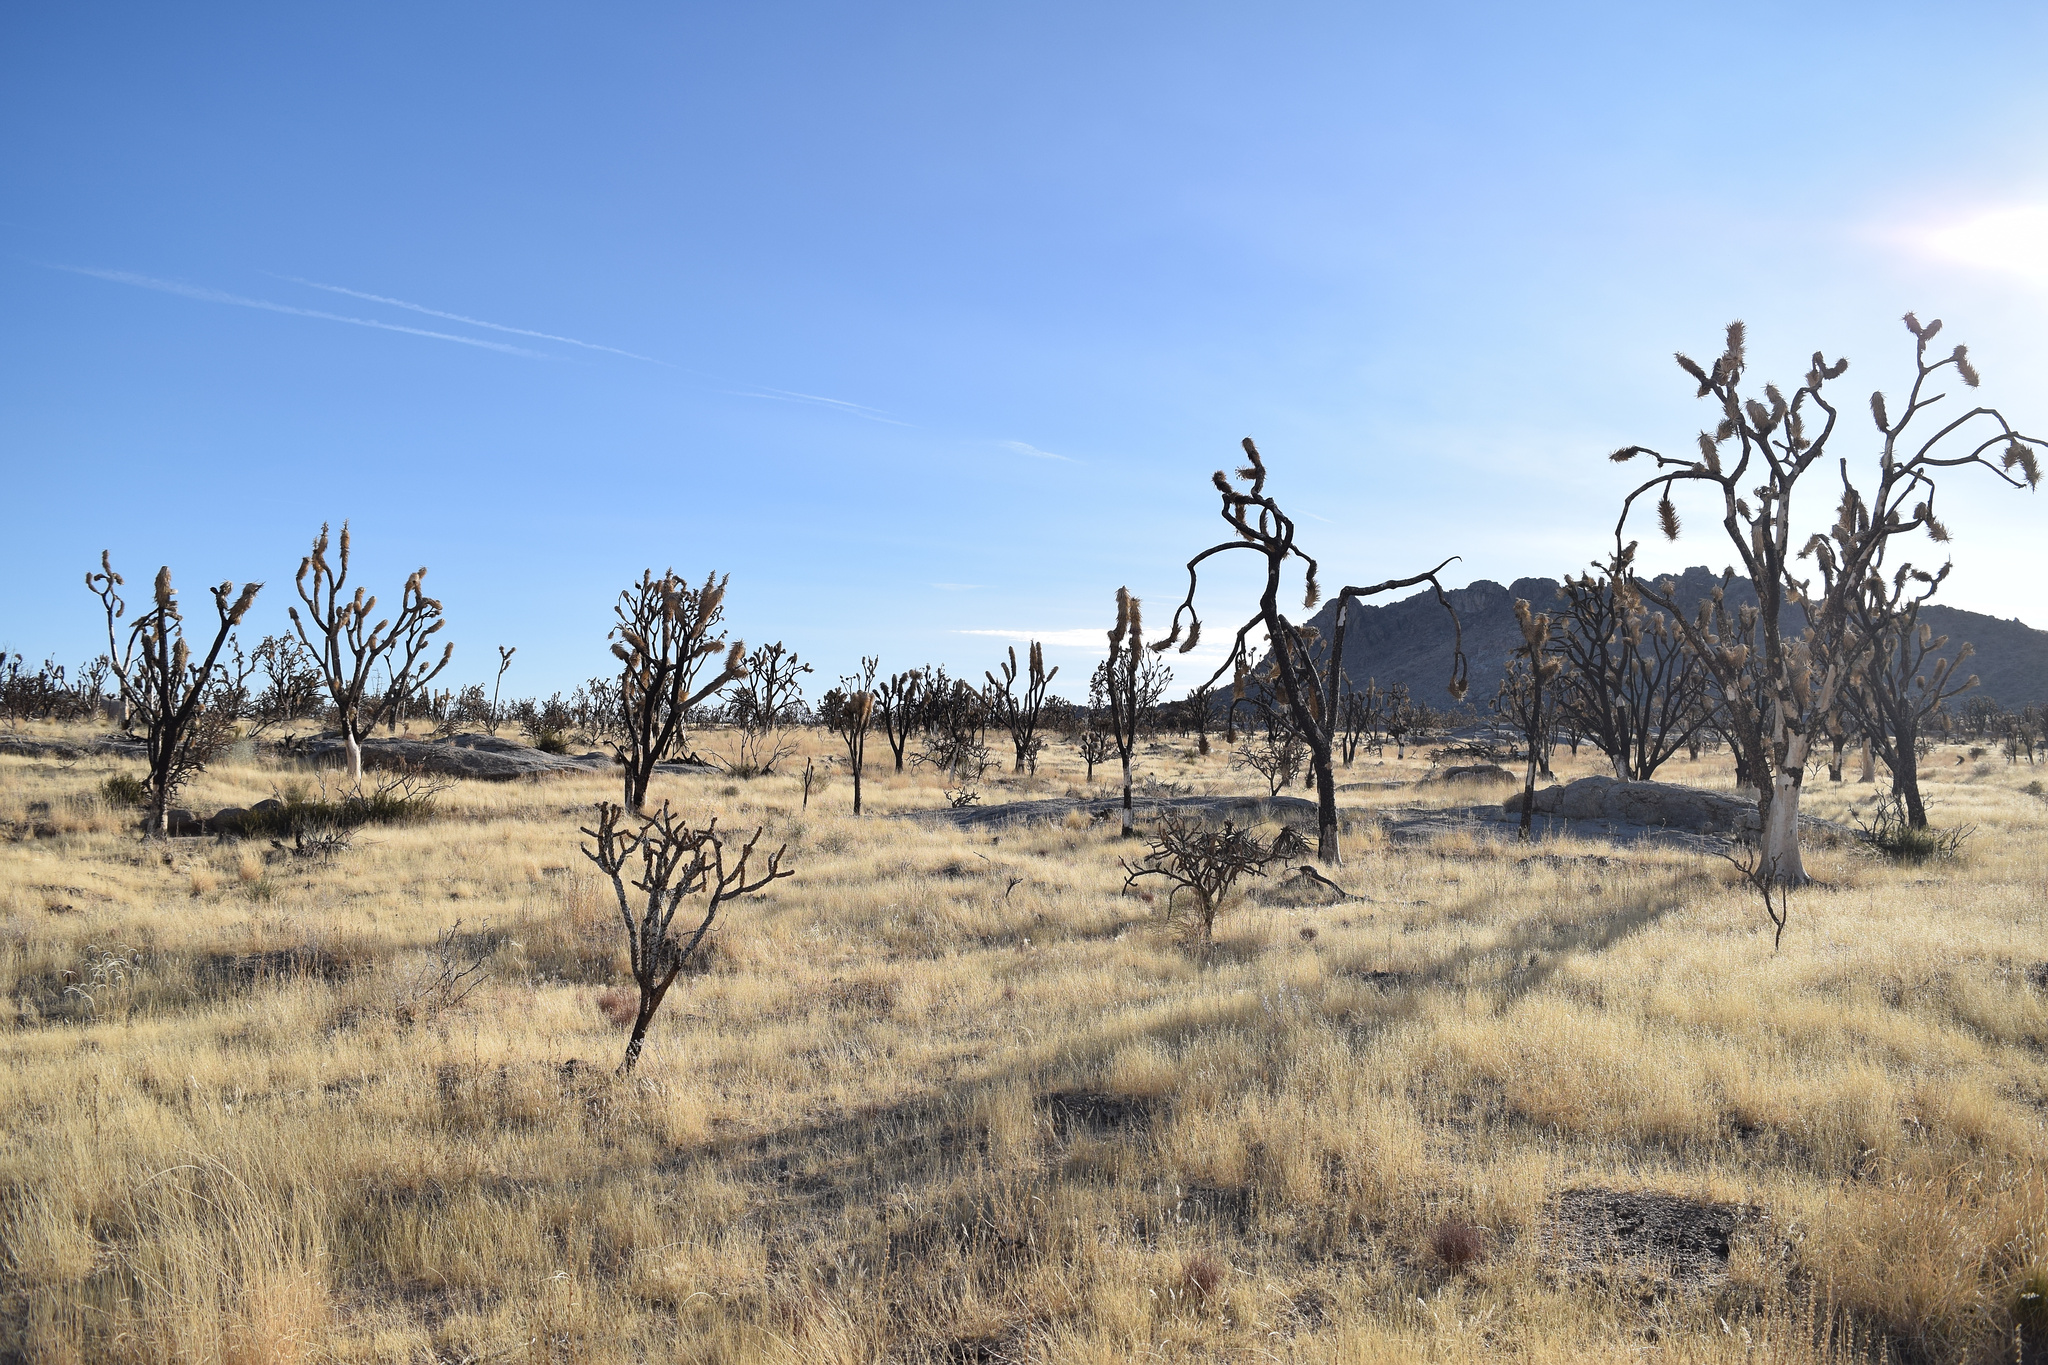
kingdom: Plantae
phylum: Tracheophyta
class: Liliopsida
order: Asparagales
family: Asparagaceae
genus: Yucca
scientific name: Yucca brevifolia
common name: Joshua tree
